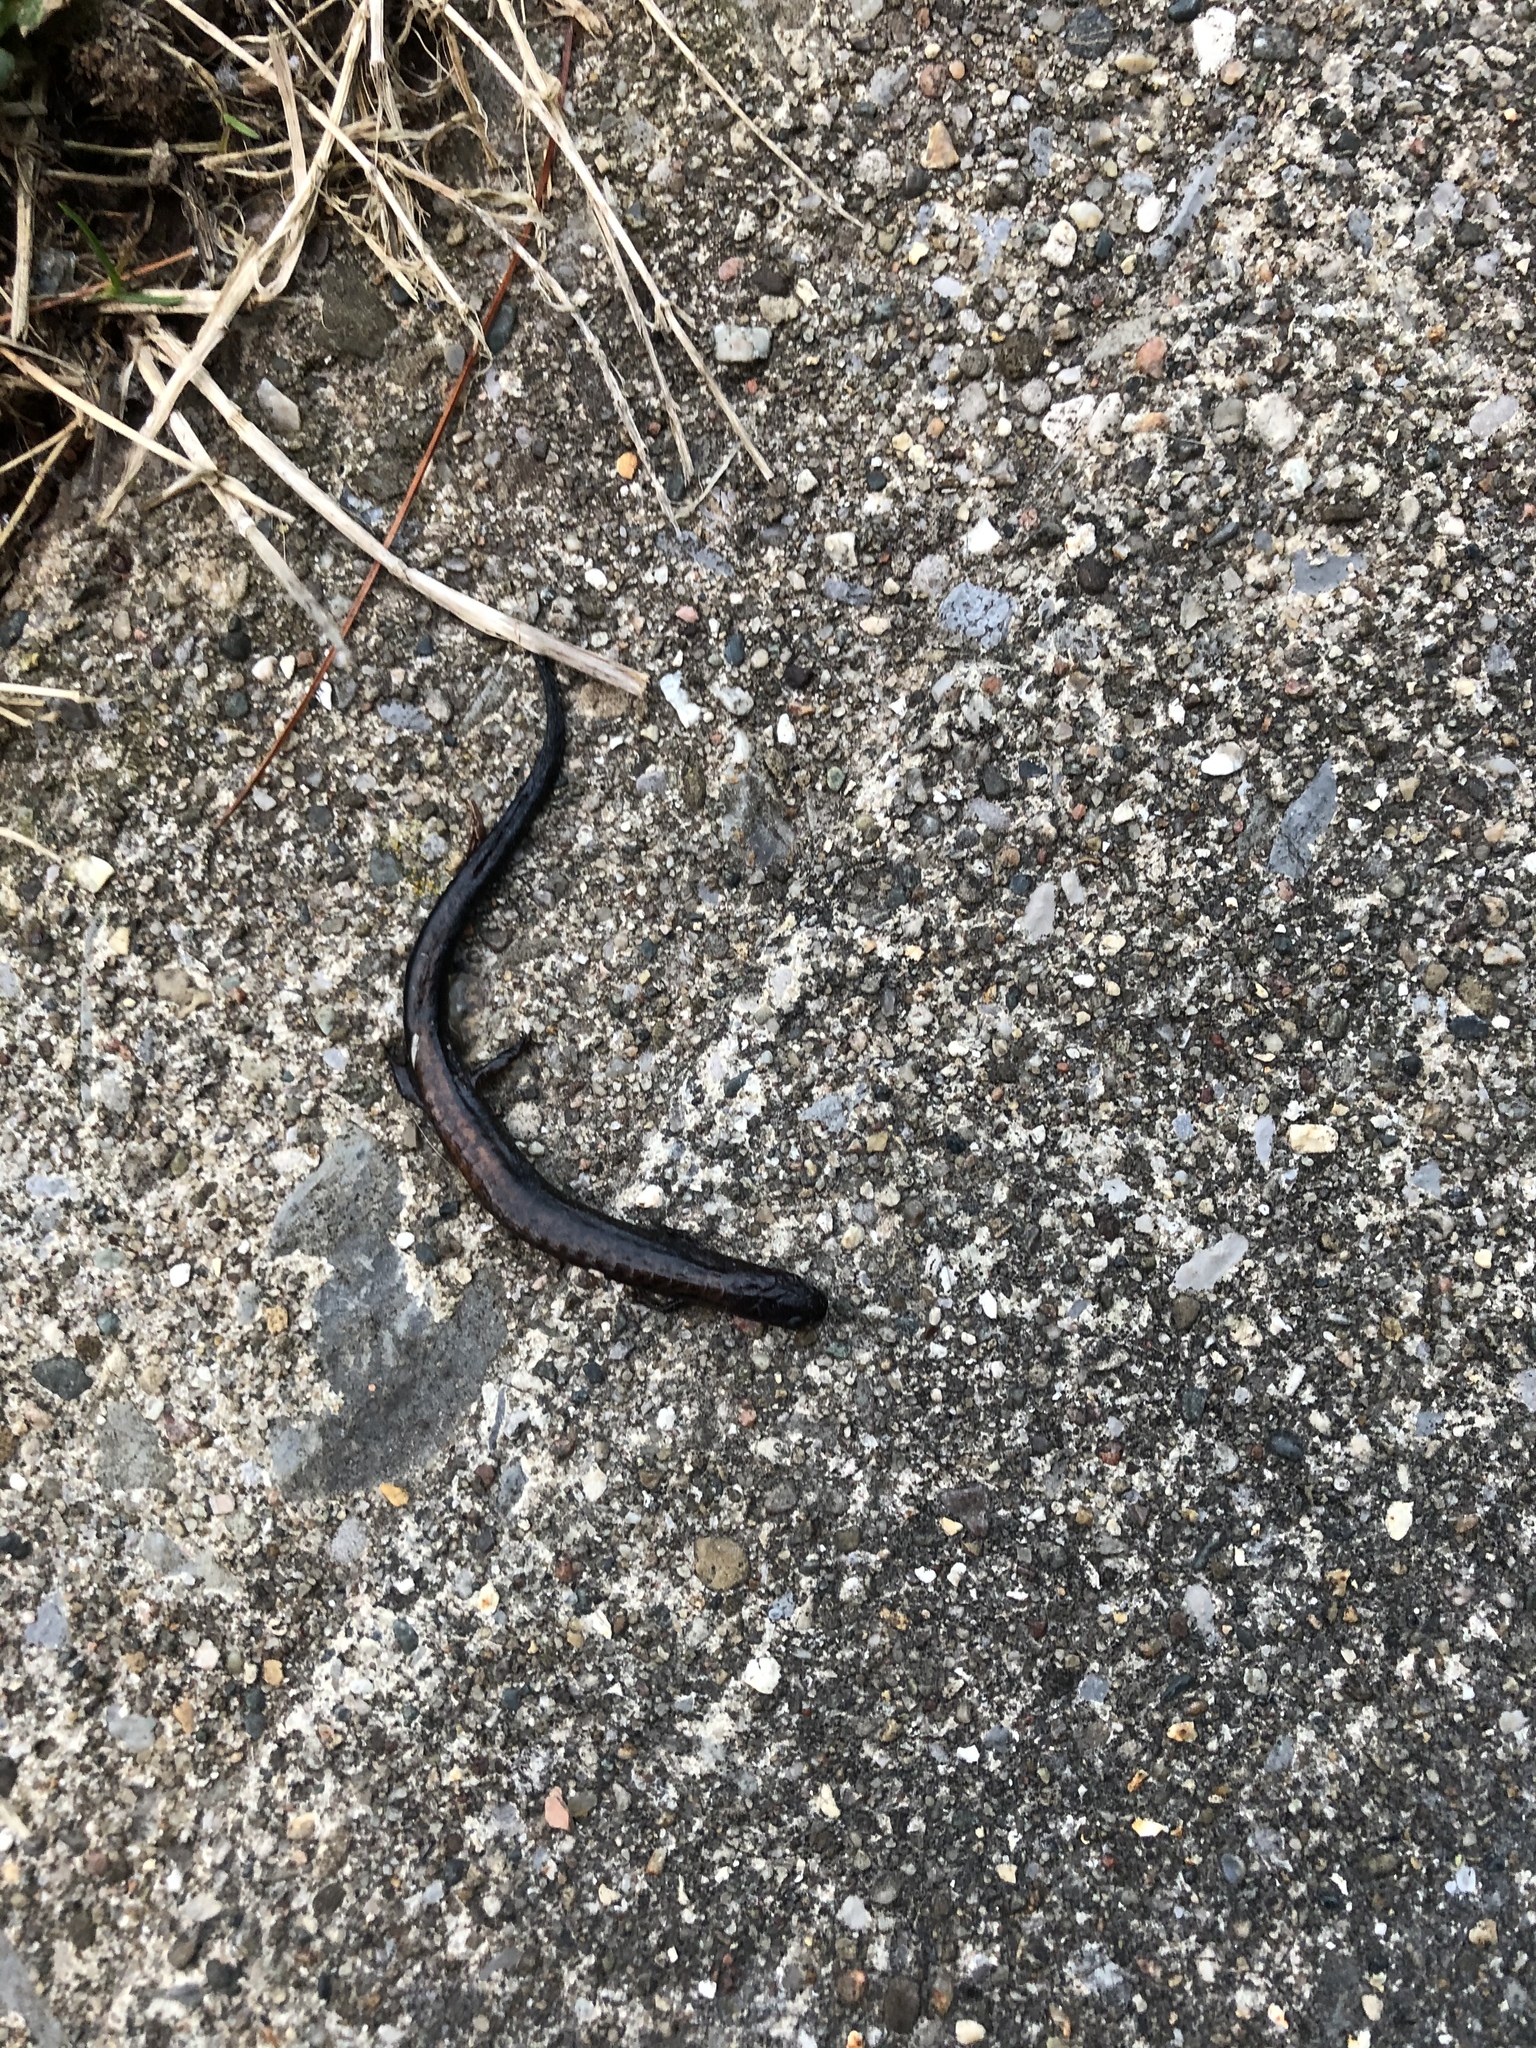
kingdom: Animalia
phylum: Chordata
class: Amphibia
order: Caudata
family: Plethodontidae
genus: Plethodon
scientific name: Plethodon cinereus
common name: Redback salamander
